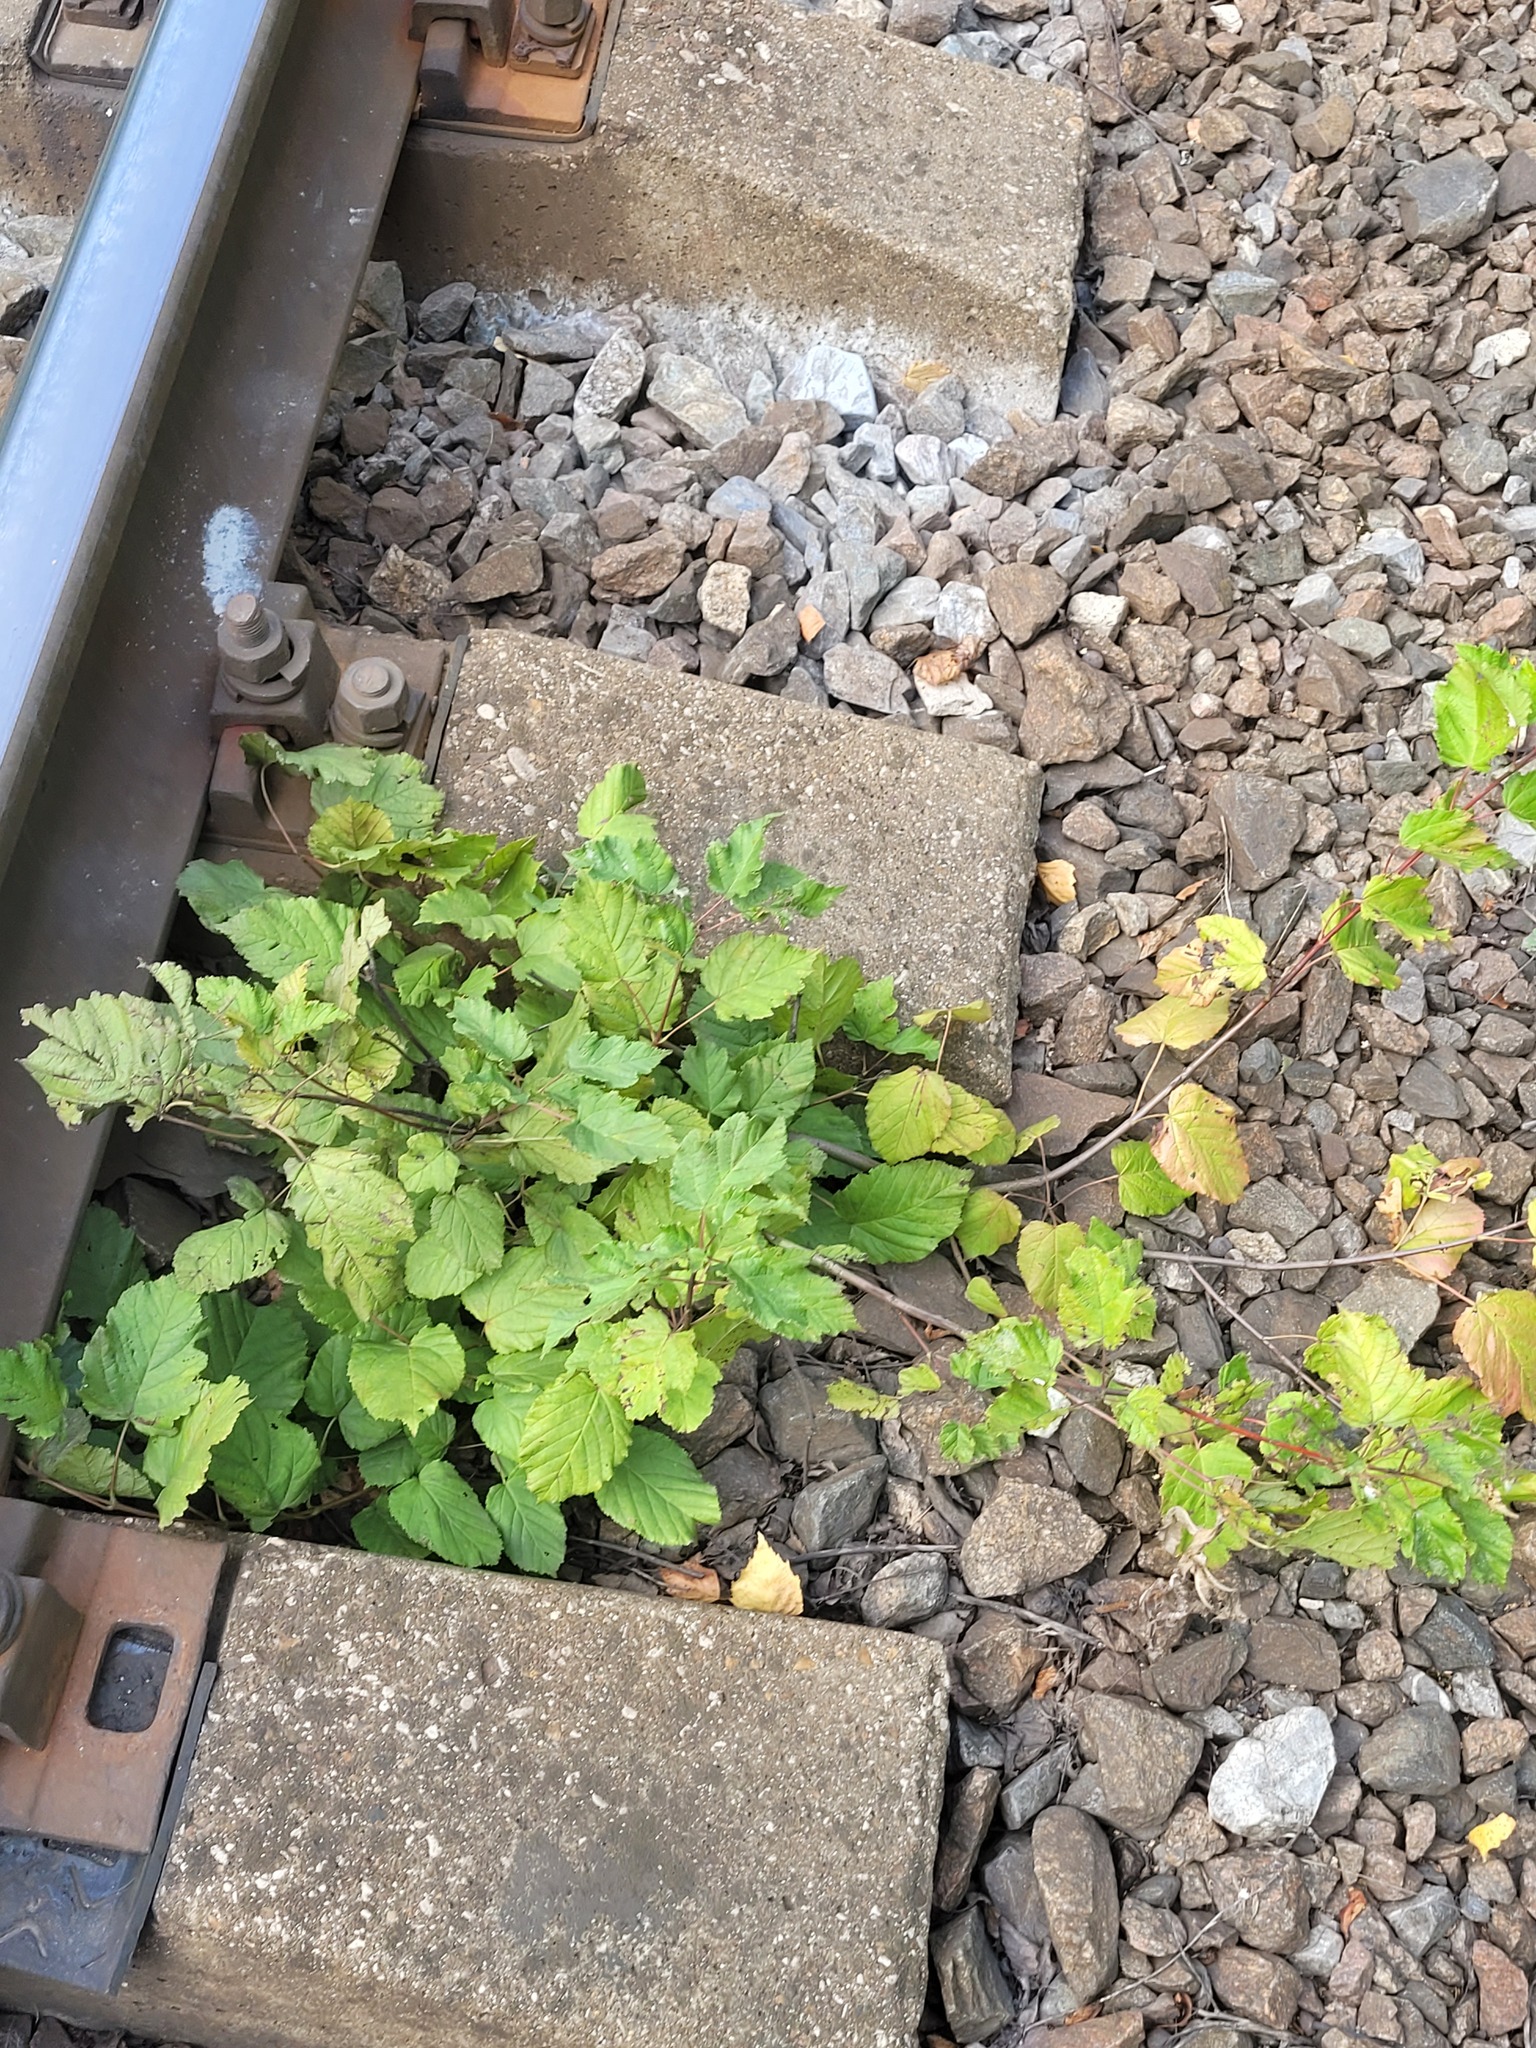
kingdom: Plantae
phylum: Tracheophyta
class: Magnoliopsida
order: Sapindales
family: Sapindaceae
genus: Acer
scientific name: Acer tataricum
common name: Tartar maple
